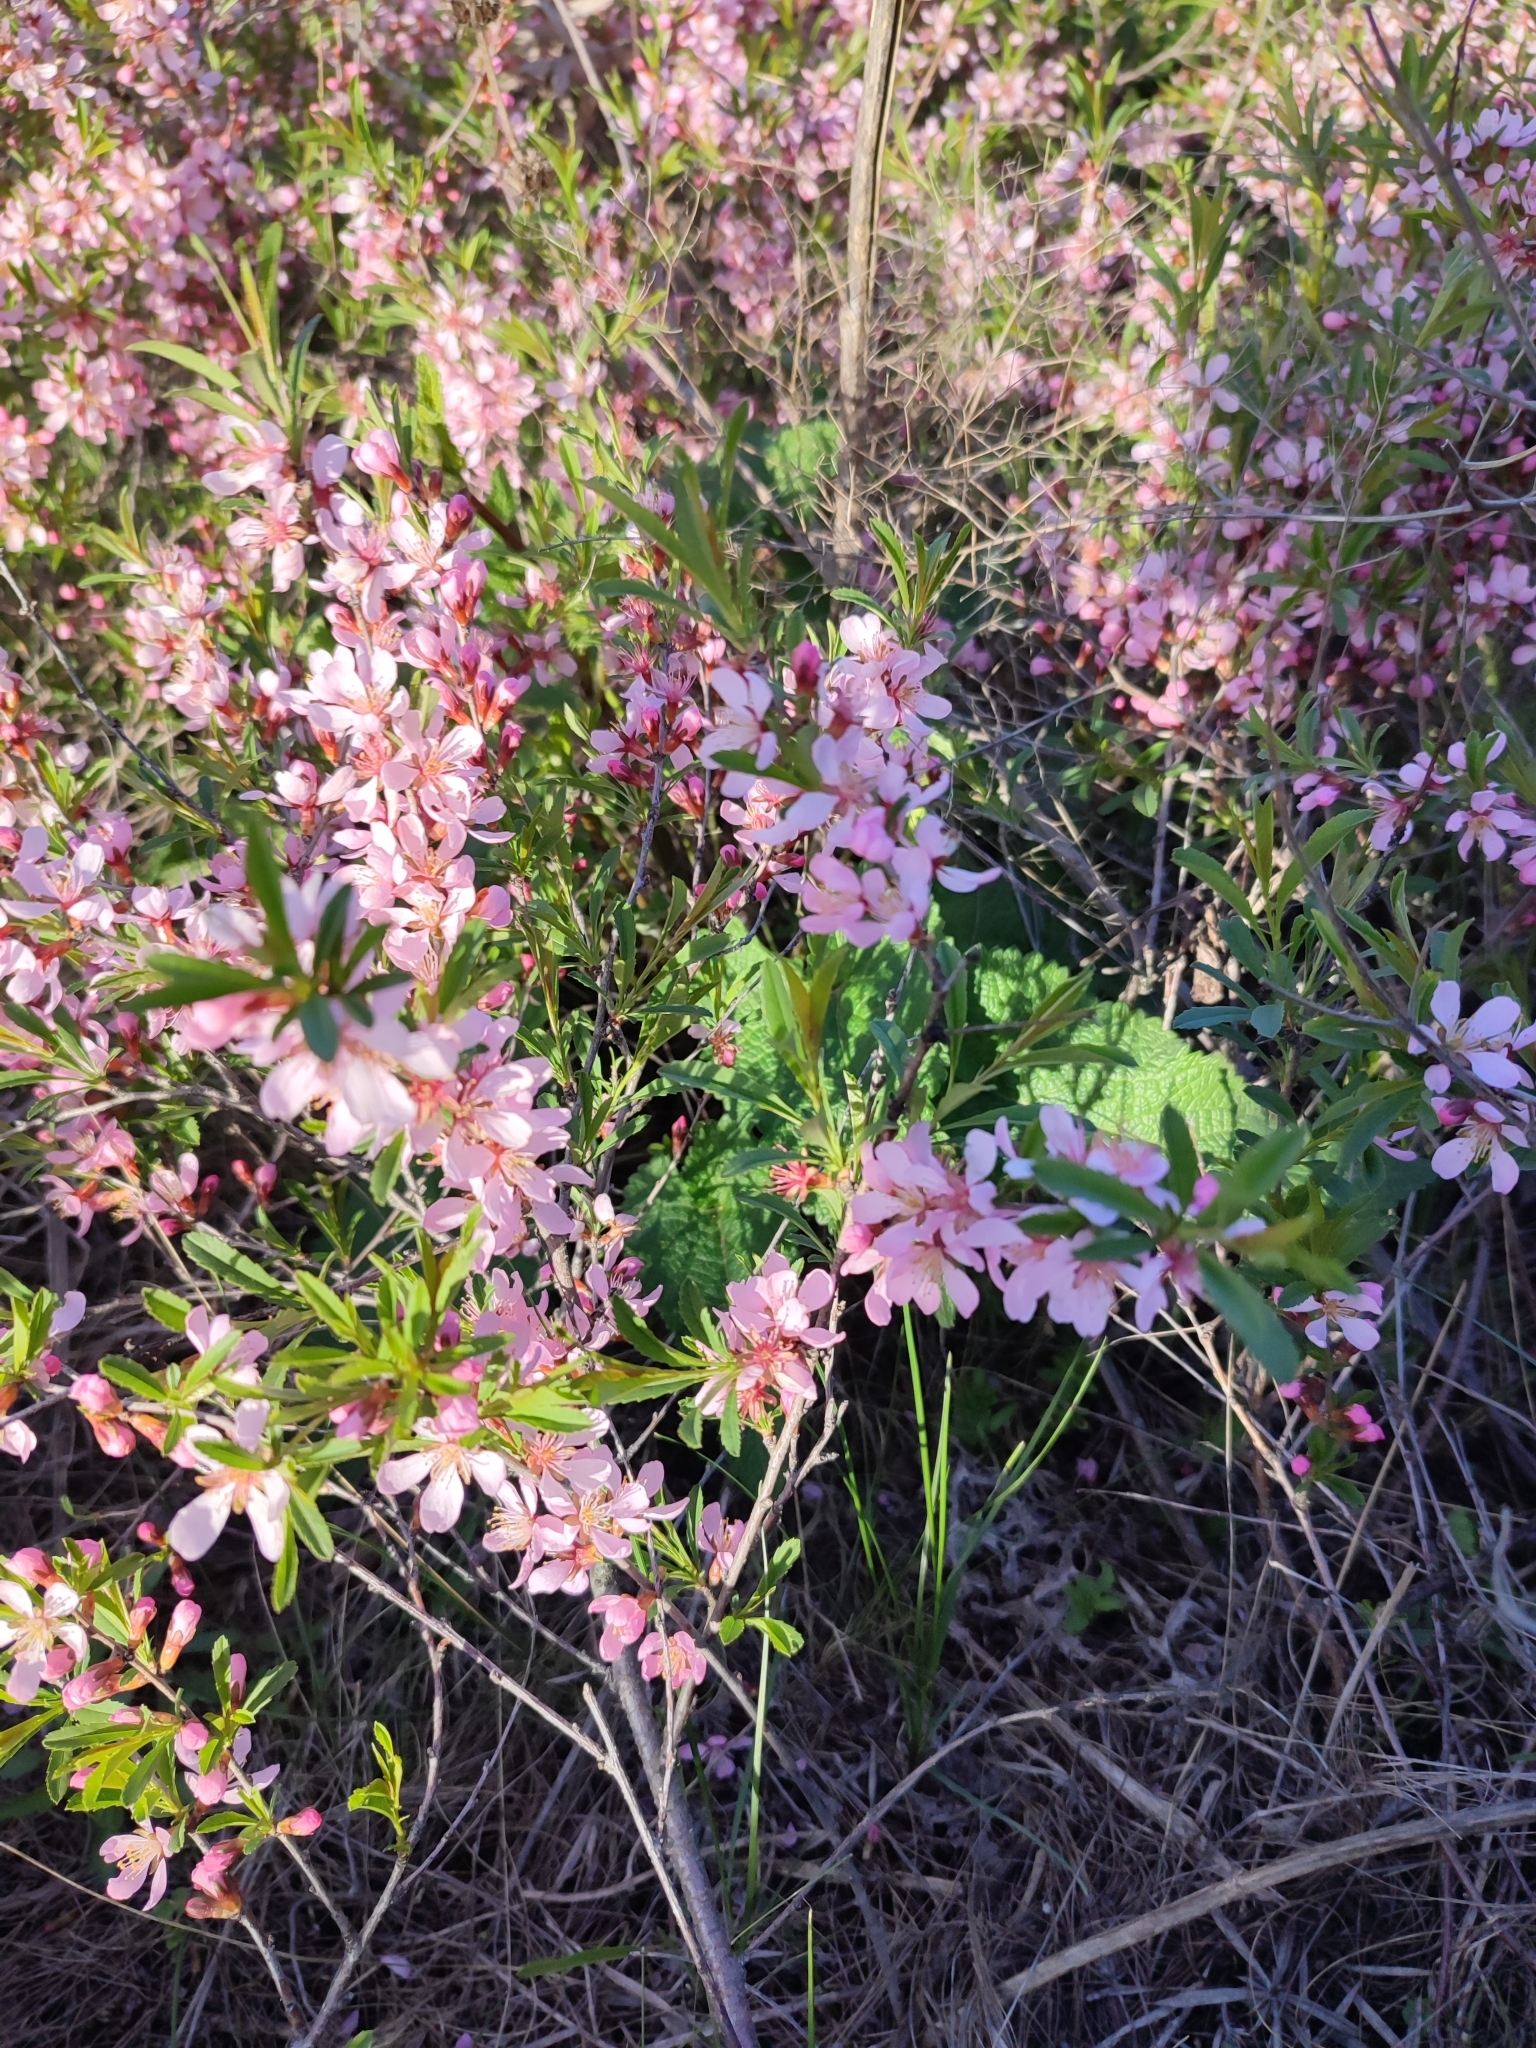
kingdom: Plantae
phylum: Tracheophyta
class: Magnoliopsida
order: Rosales
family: Rosaceae
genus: Prunus
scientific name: Prunus tenella
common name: Dwarf russian almond
